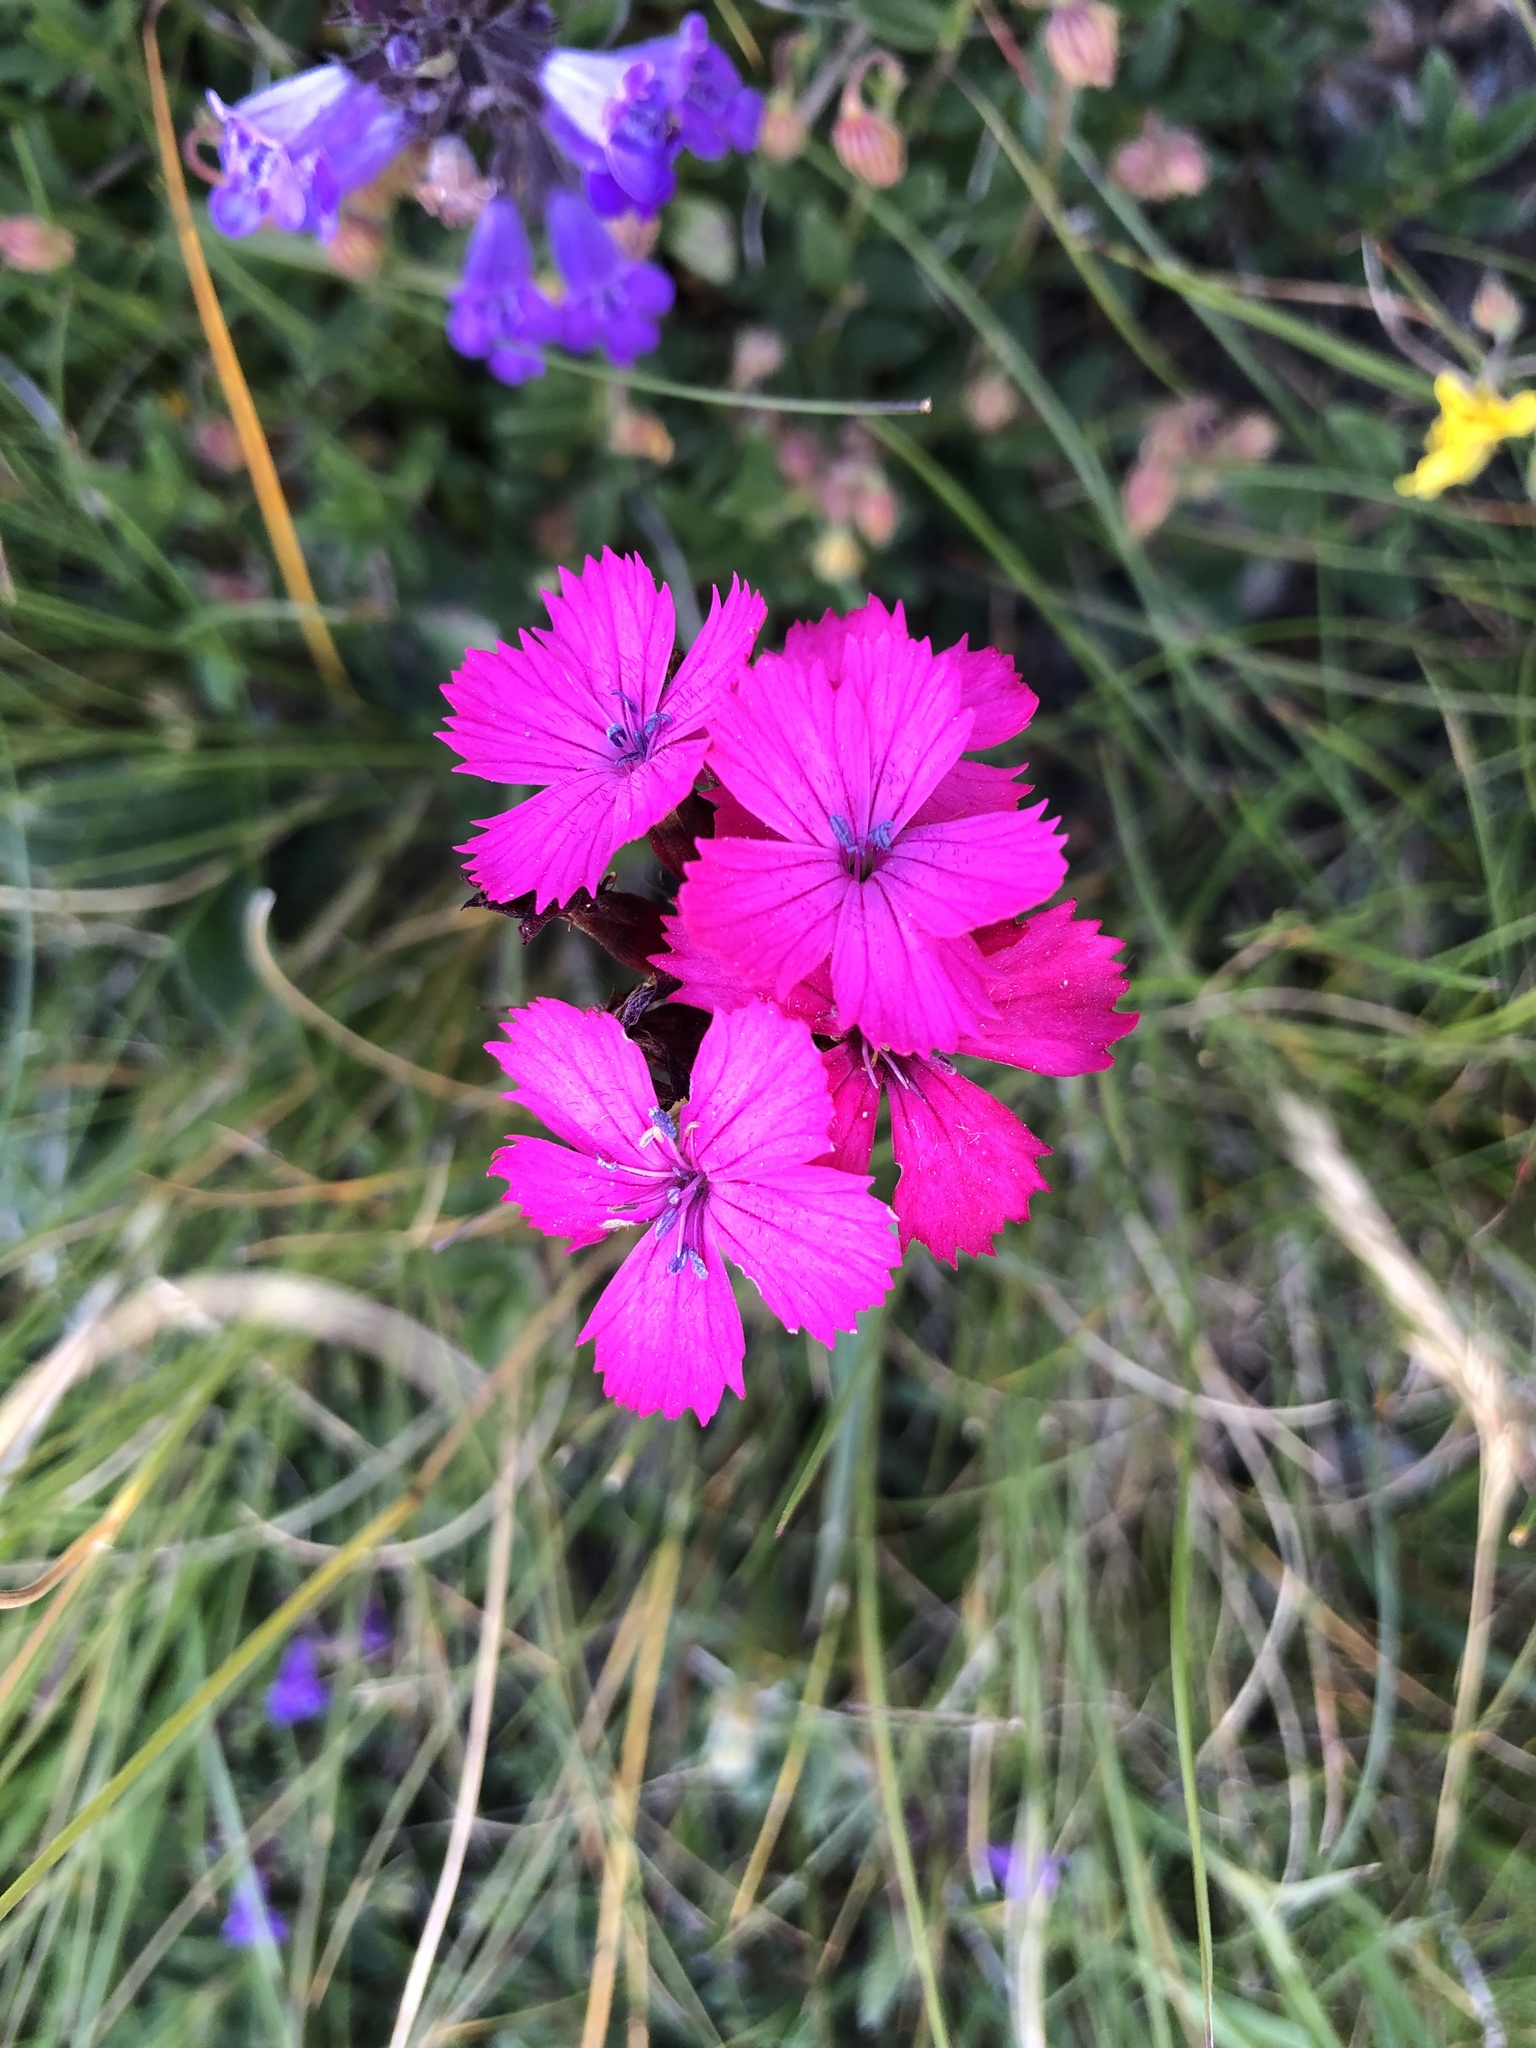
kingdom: Plantae
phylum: Tracheophyta
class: Magnoliopsida
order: Caryophyllales
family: Caryophyllaceae
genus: Dianthus
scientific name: Dianthus carthusianorum
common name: Carthusian pink
